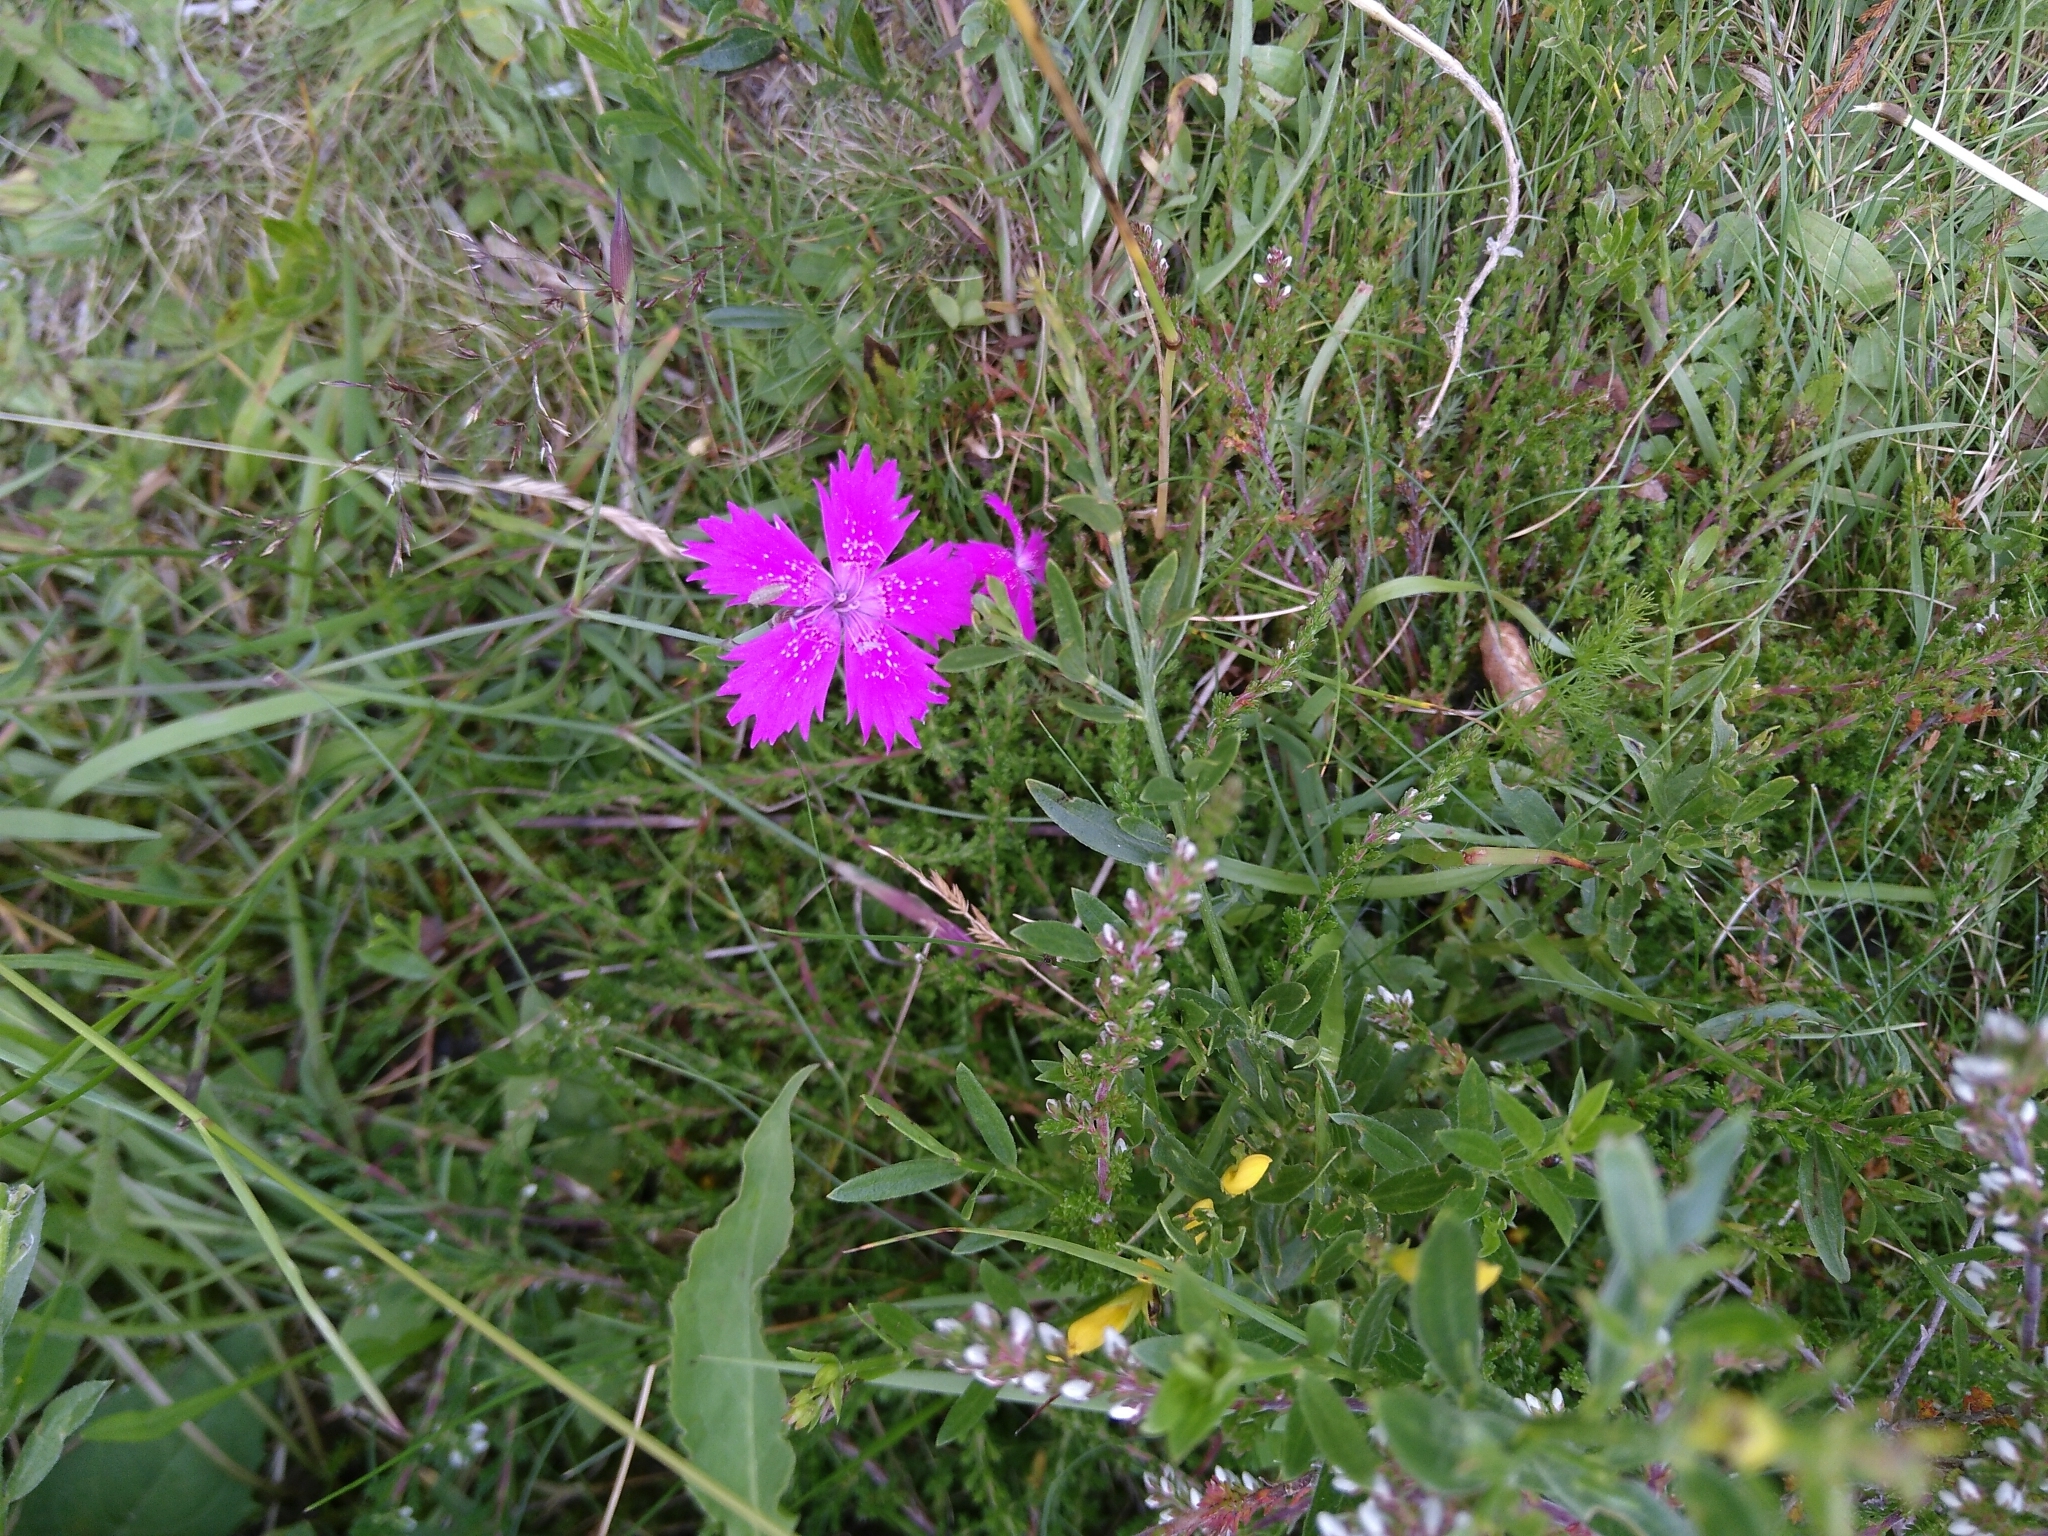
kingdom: Plantae
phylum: Tracheophyta
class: Magnoliopsida
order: Caryophyllales
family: Caryophyllaceae
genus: Dianthus
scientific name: Dianthus deltoides
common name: Maiden pink
